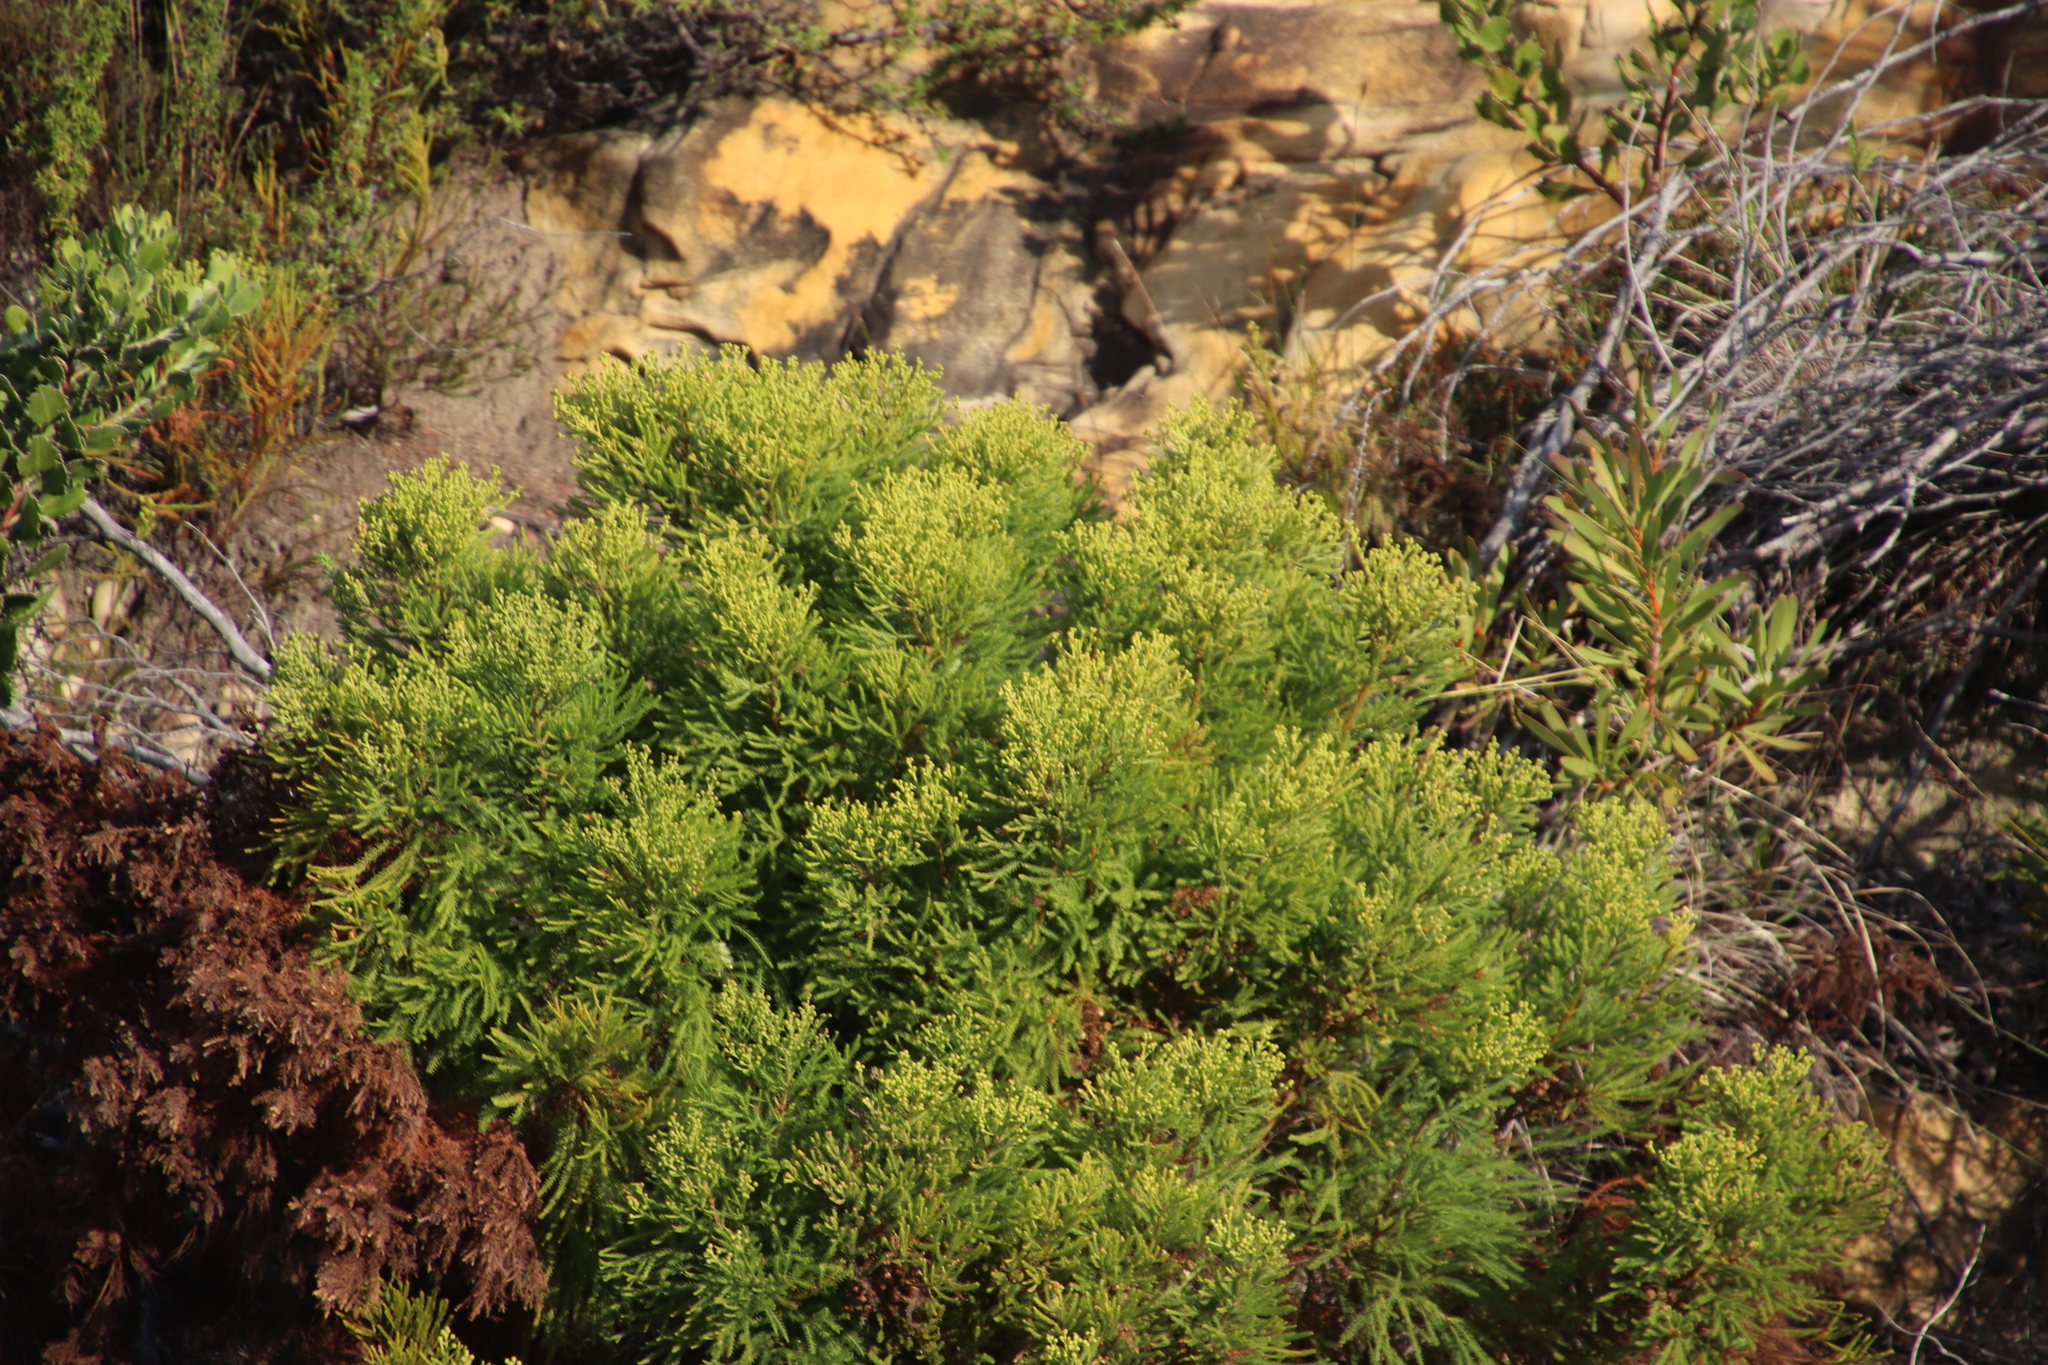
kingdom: Plantae
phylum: Tracheophyta
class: Magnoliopsida
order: Bruniales
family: Bruniaceae
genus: Berzelia
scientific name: Berzelia lanuginosa
